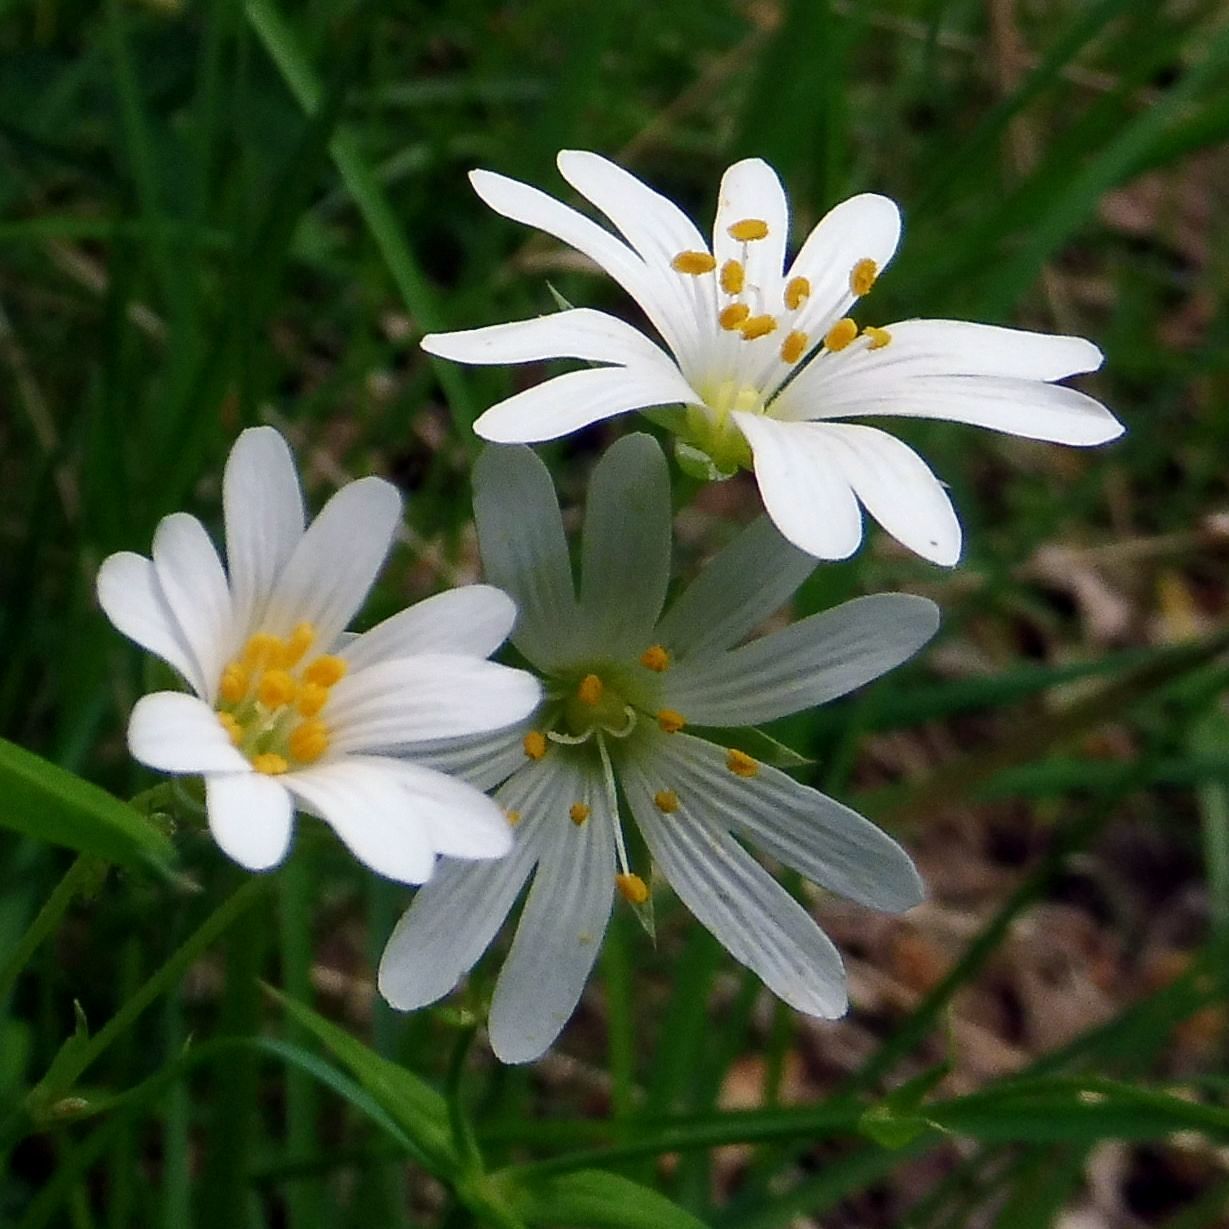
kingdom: Plantae
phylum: Tracheophyta
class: Magnoliopsida
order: Caryophyllales
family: Caryophyllaceae
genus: Rabelera
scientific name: Rabelera holostea
